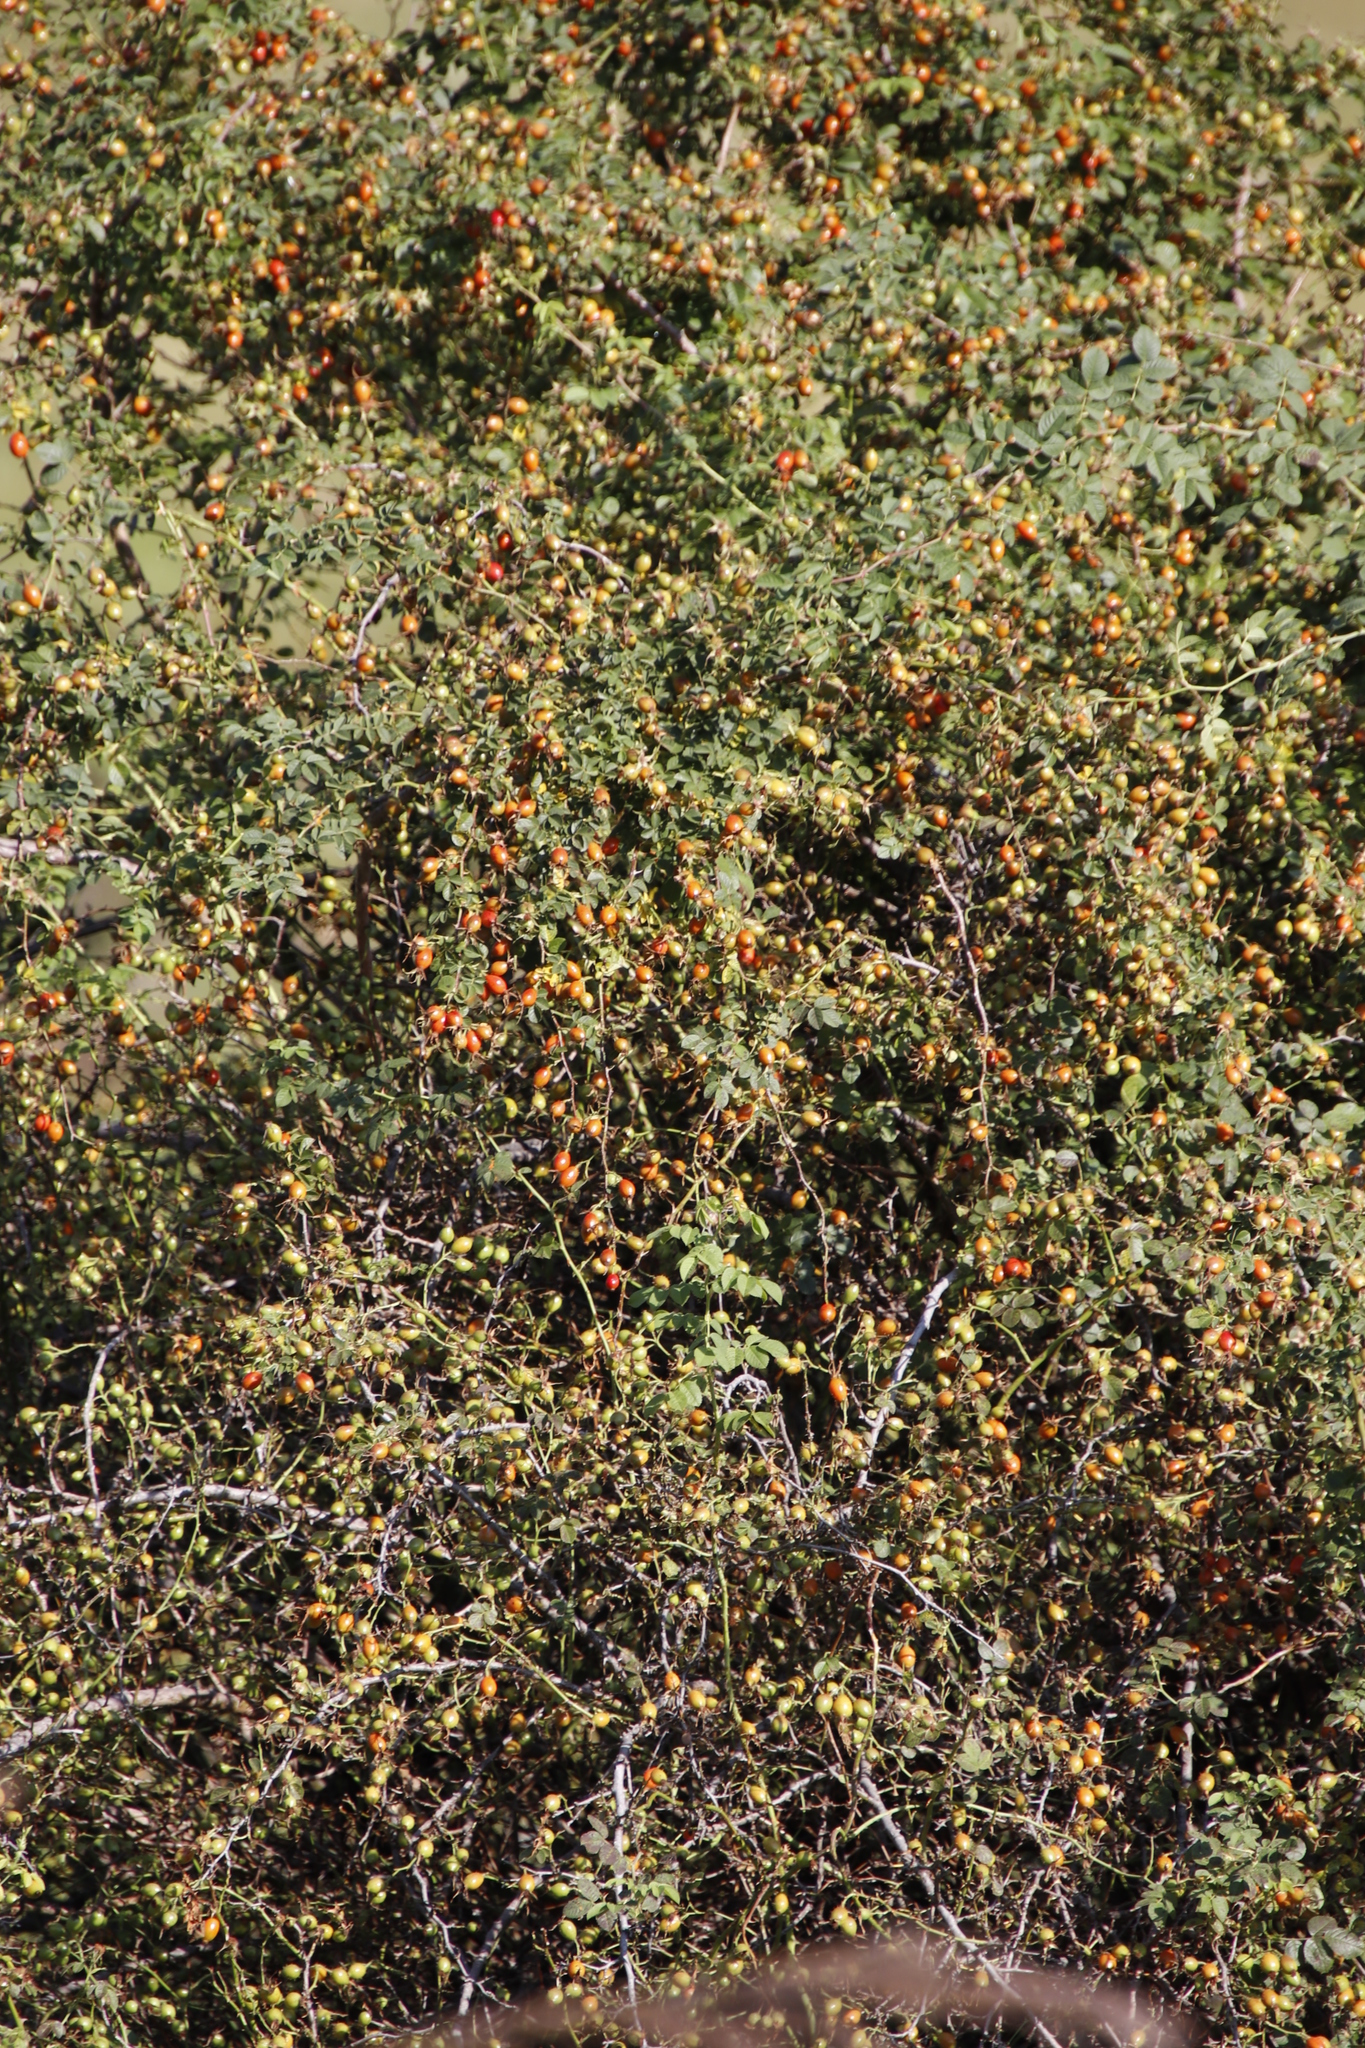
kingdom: Plantae
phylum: Tracheophyta
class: Magnoliopsida
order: Rosales
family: Rosaceae
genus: Rosa
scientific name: Rosa rubiginosa
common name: Sweet-briar
